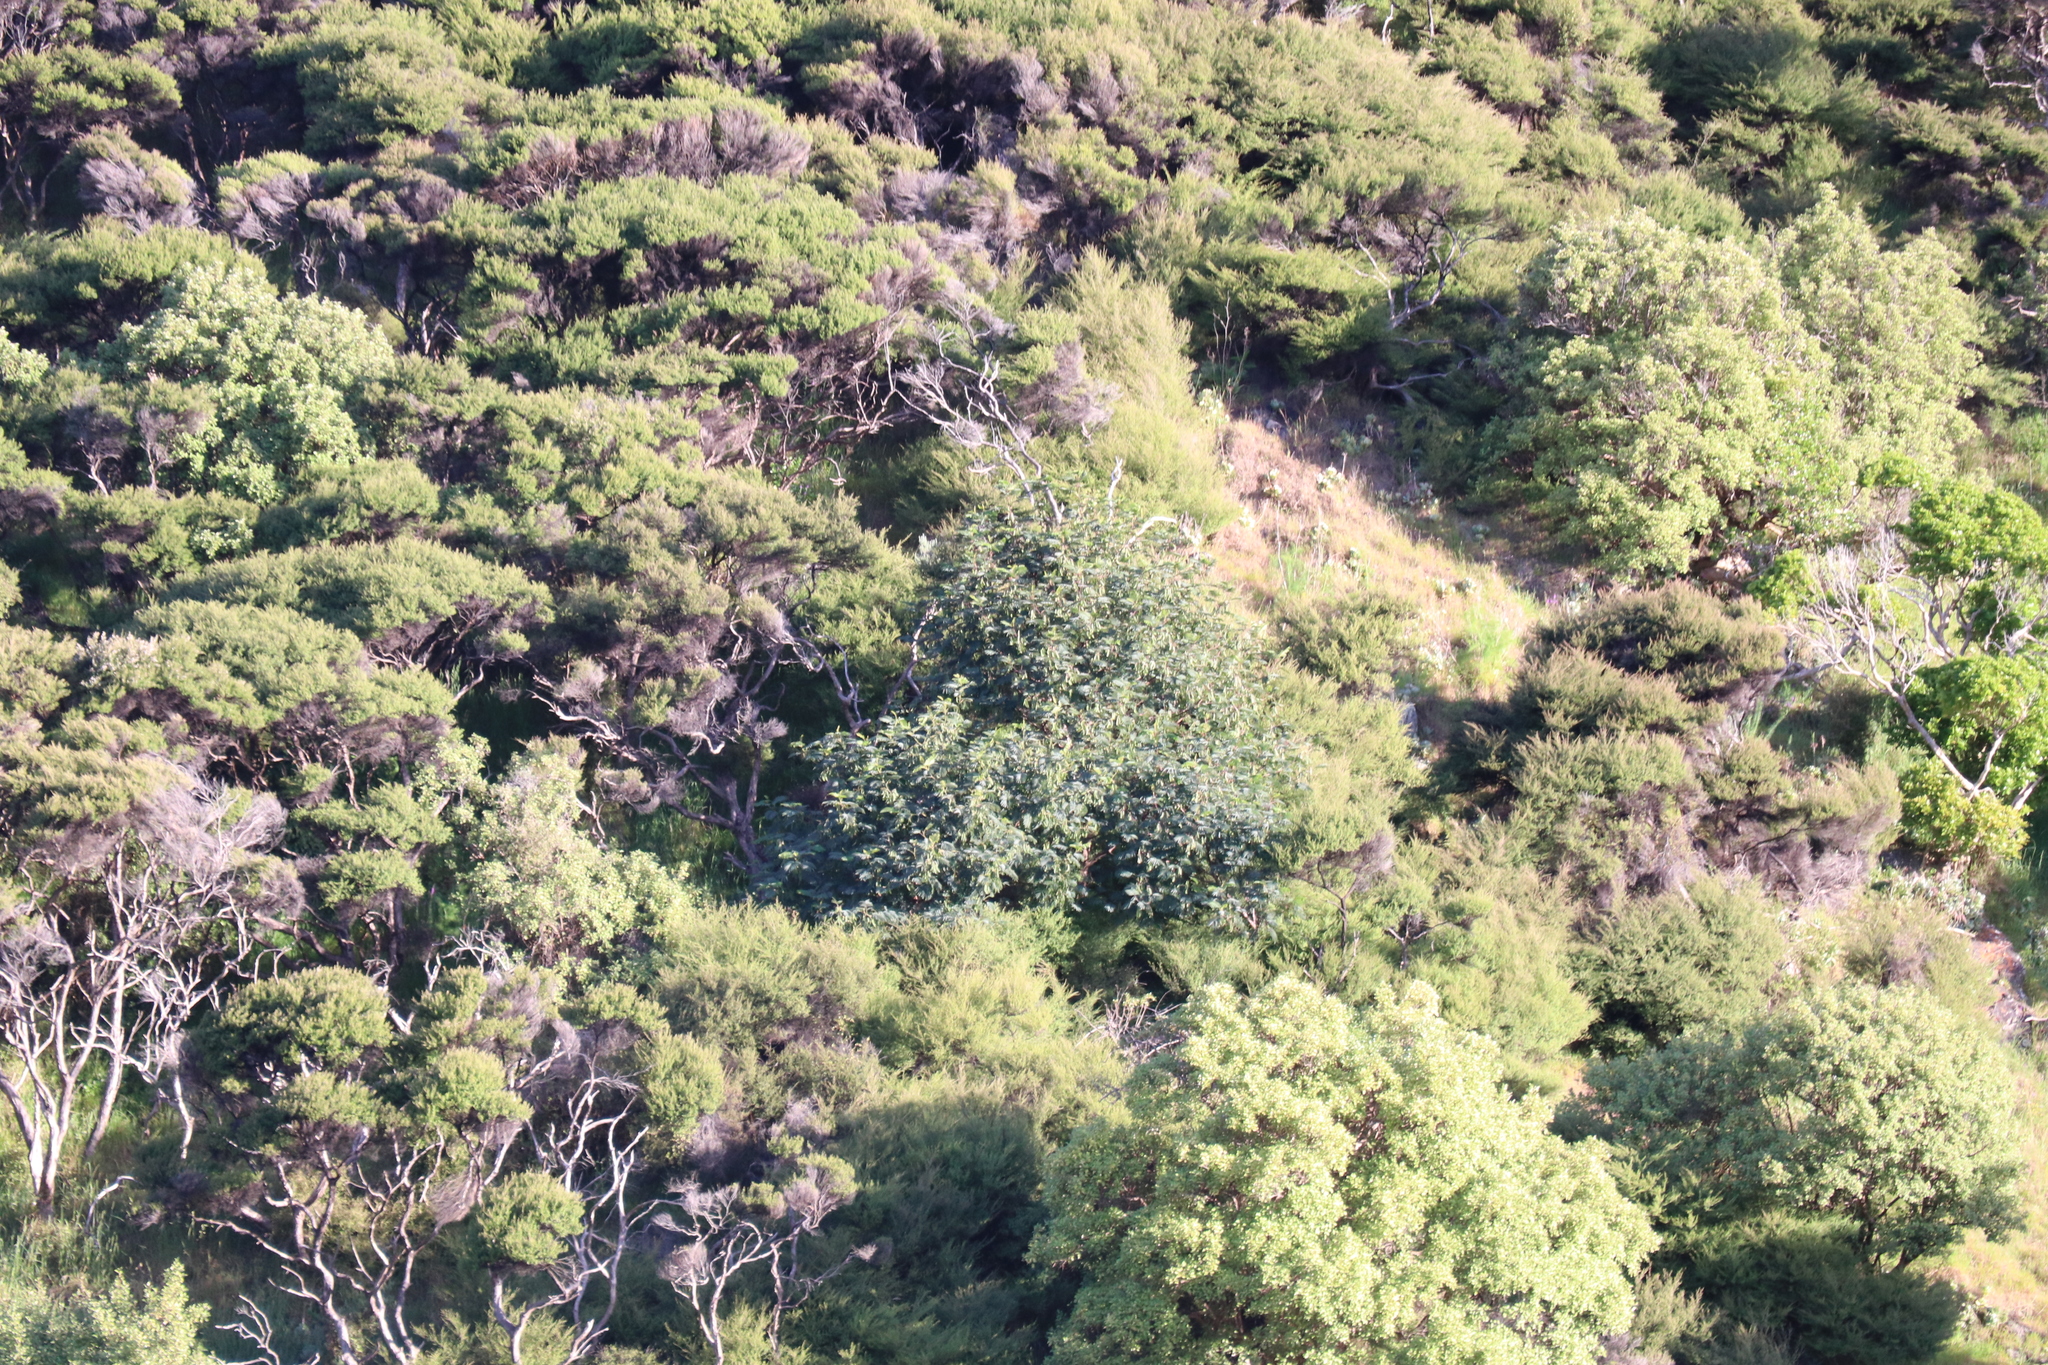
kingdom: Plantae
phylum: Tracheophyta
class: Magnoliopsida
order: Fabales
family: Fabaceae
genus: Paraserianthes
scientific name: Paraserianthes lophantha
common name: Plume albizia
